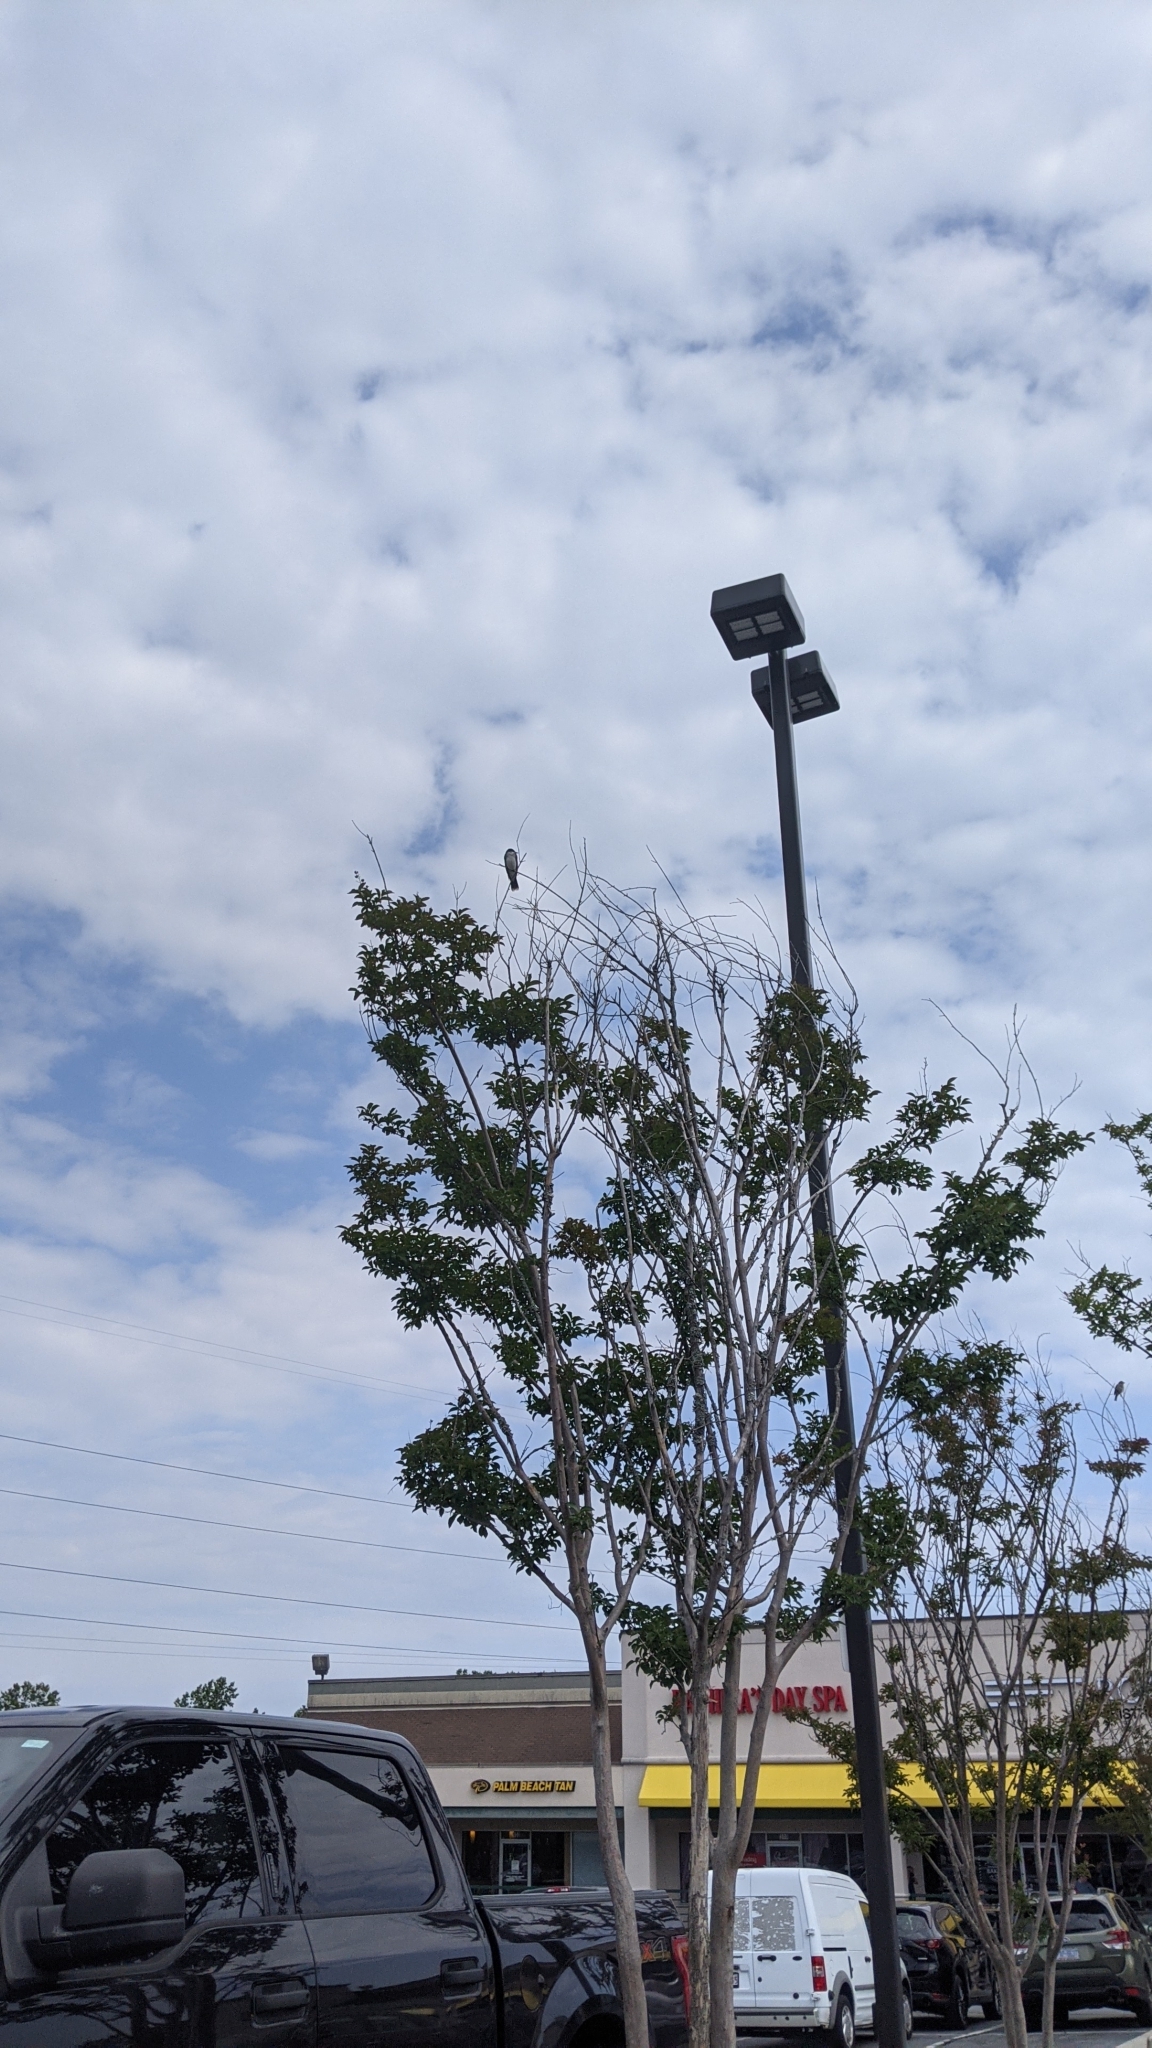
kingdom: Animalia
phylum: Chordata
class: Aves
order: Passeriformes
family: Tyrannidae
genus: Tyrannus
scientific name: Tyrannus tyrannus
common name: Eastern kingbird
